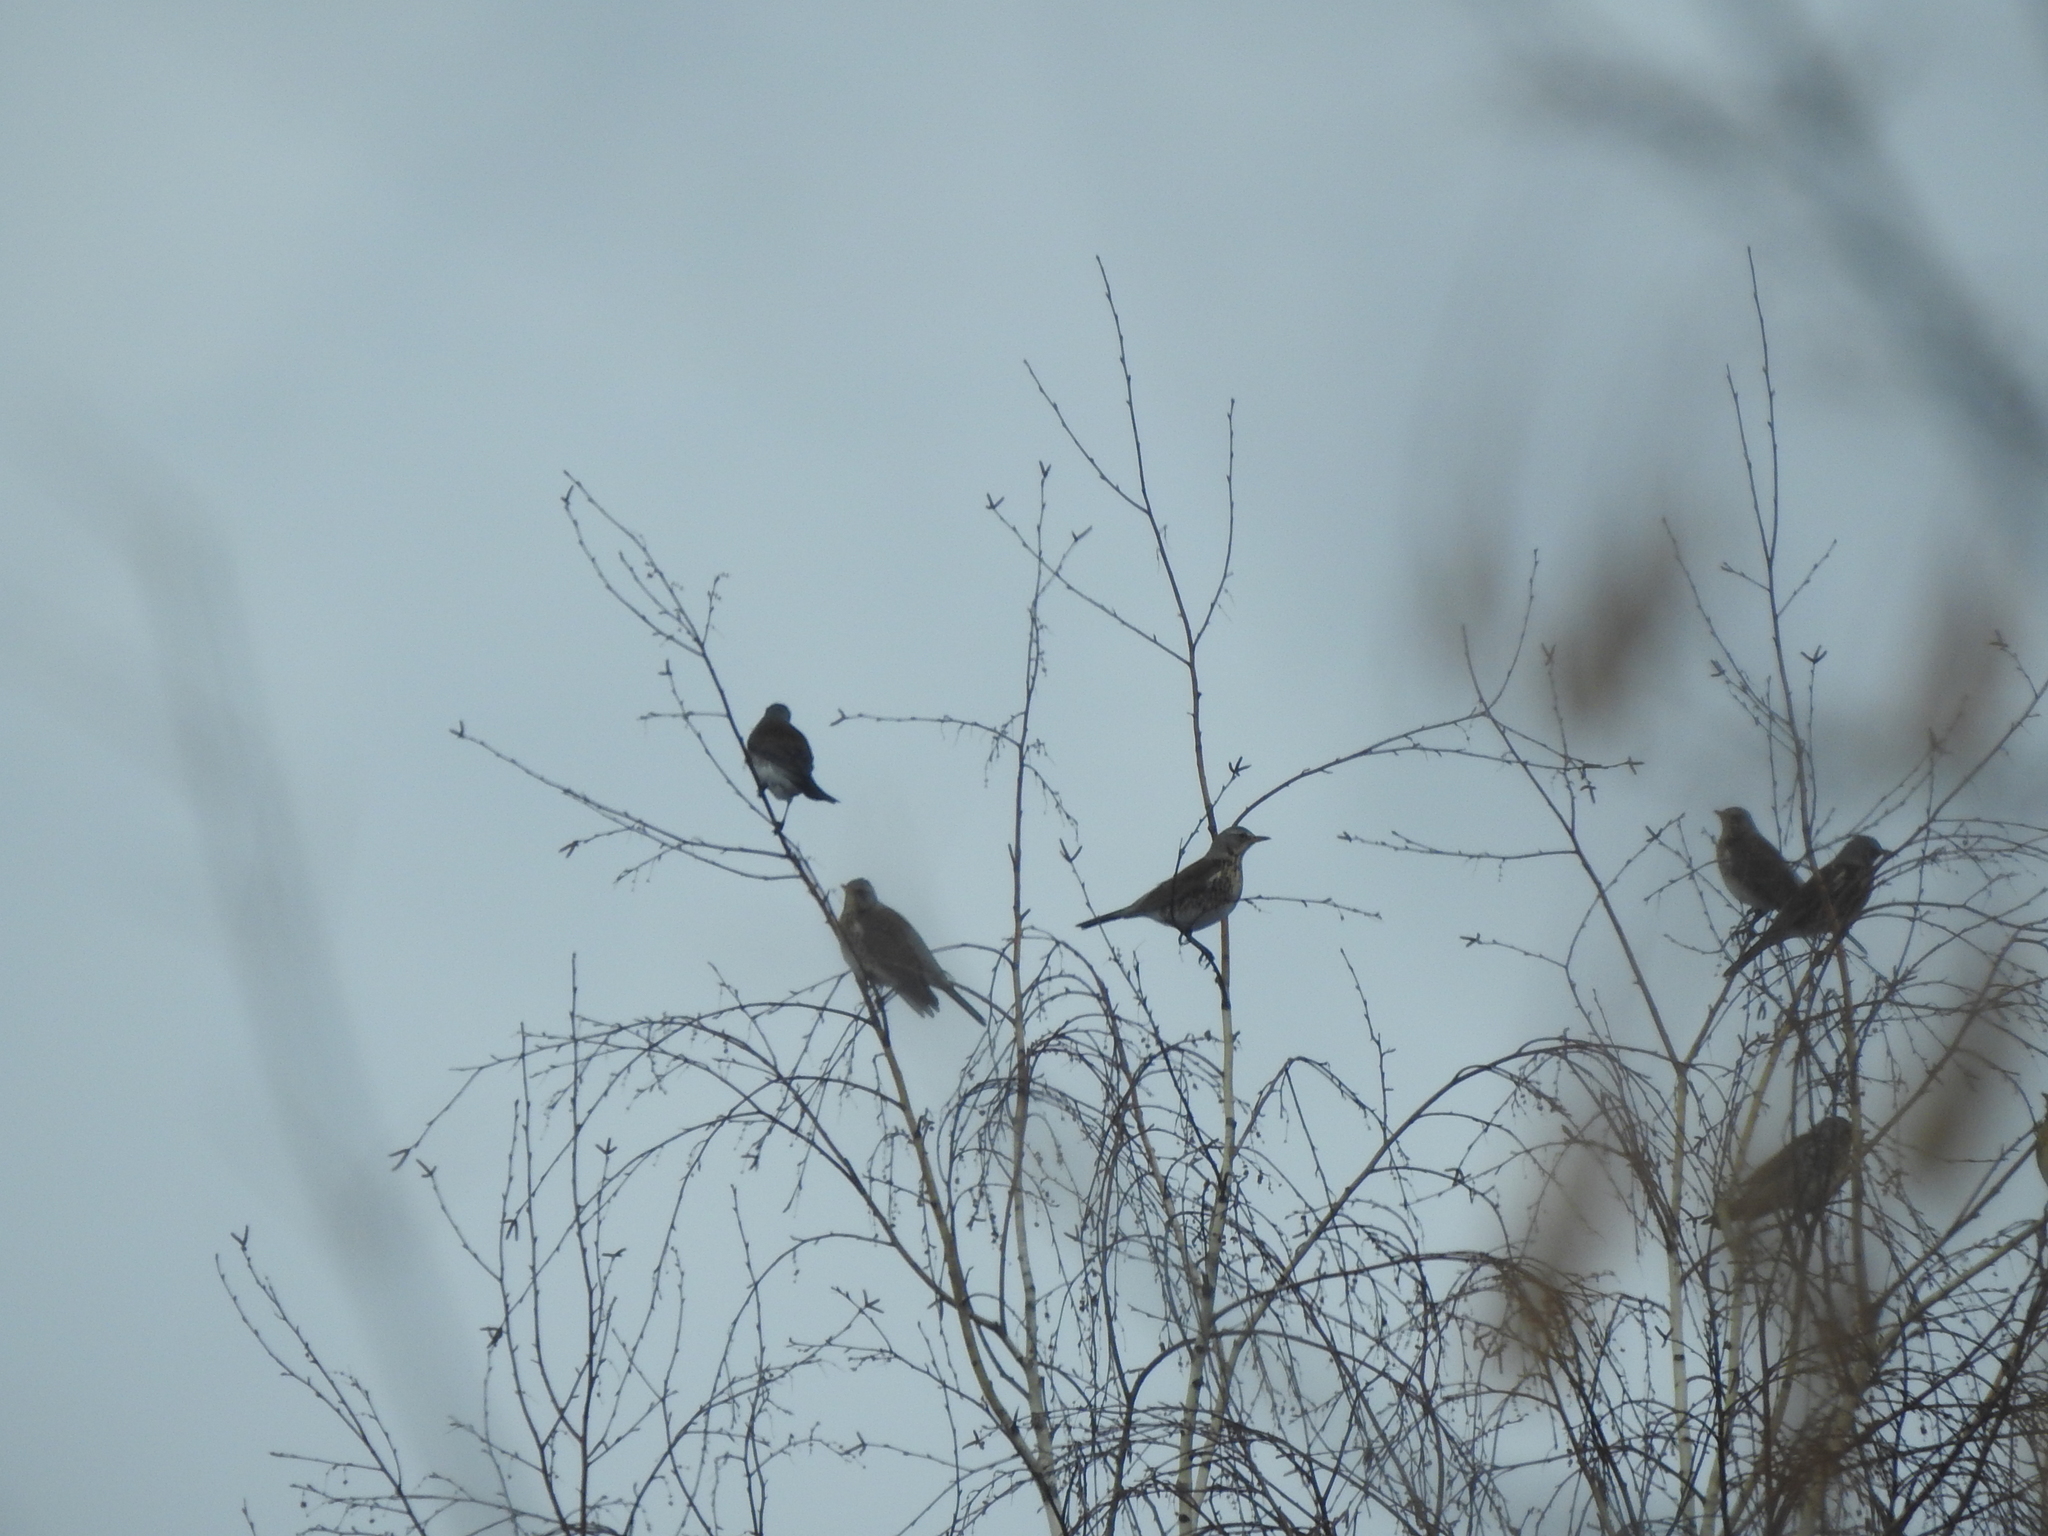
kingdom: Animalia
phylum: Chordata
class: Aves
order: Passeriformes
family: Turdidae
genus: Turdus
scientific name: Turdus pilaris
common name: Fieldfare
